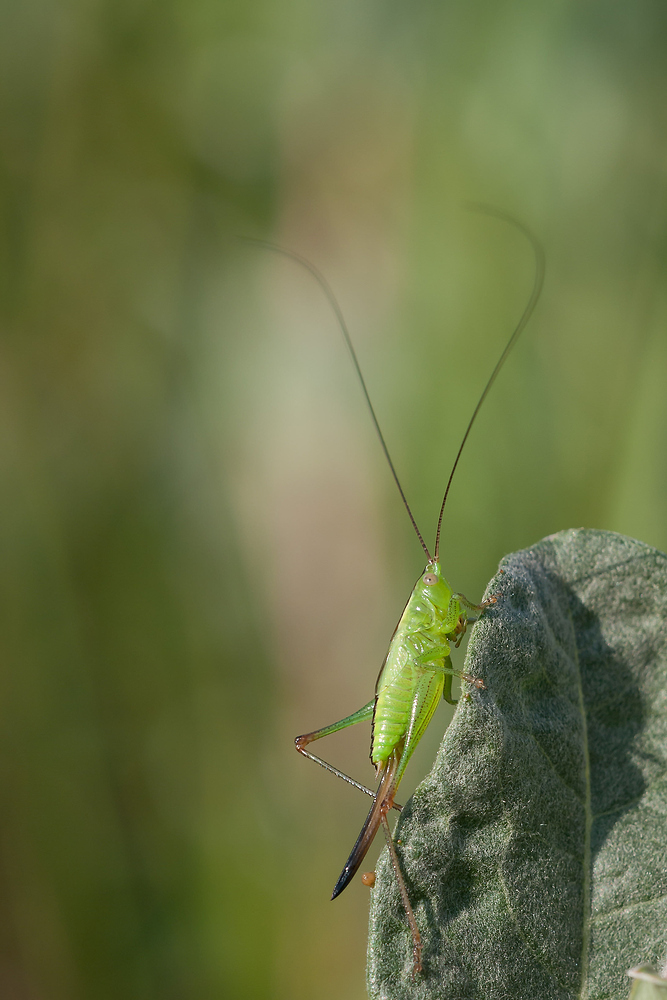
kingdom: Animalia
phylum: Arthropoda
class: Insecta
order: Orthoptera
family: Tettigoniidae
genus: Conocephalus
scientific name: Conocephalus fuscus
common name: Long-winged conehead
